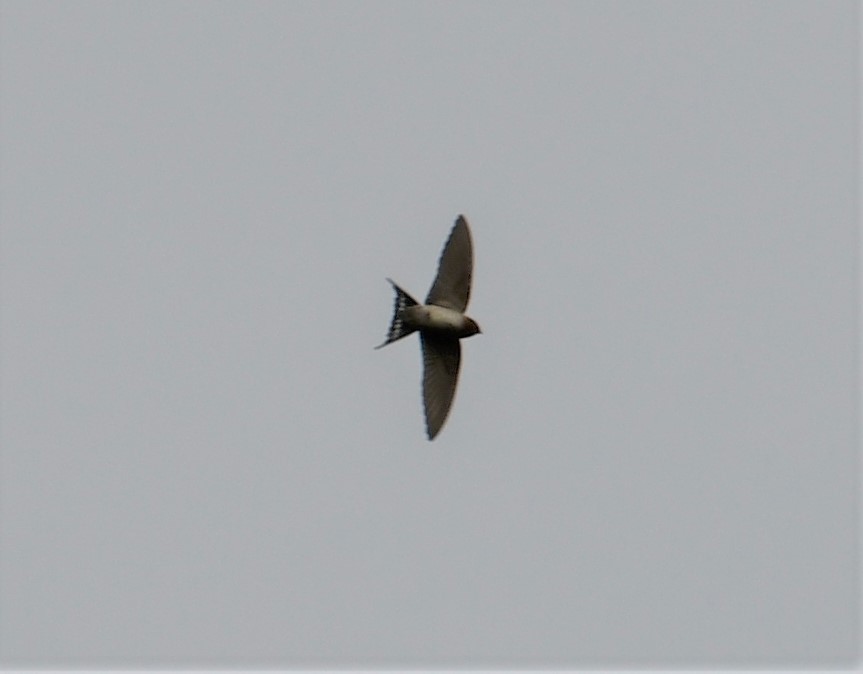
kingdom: Animalia
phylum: Chordata
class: Aves
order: Passeriformes
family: Hirundinidae
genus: Hirundo
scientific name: Hirundo neoxena
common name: Welcome swallow
